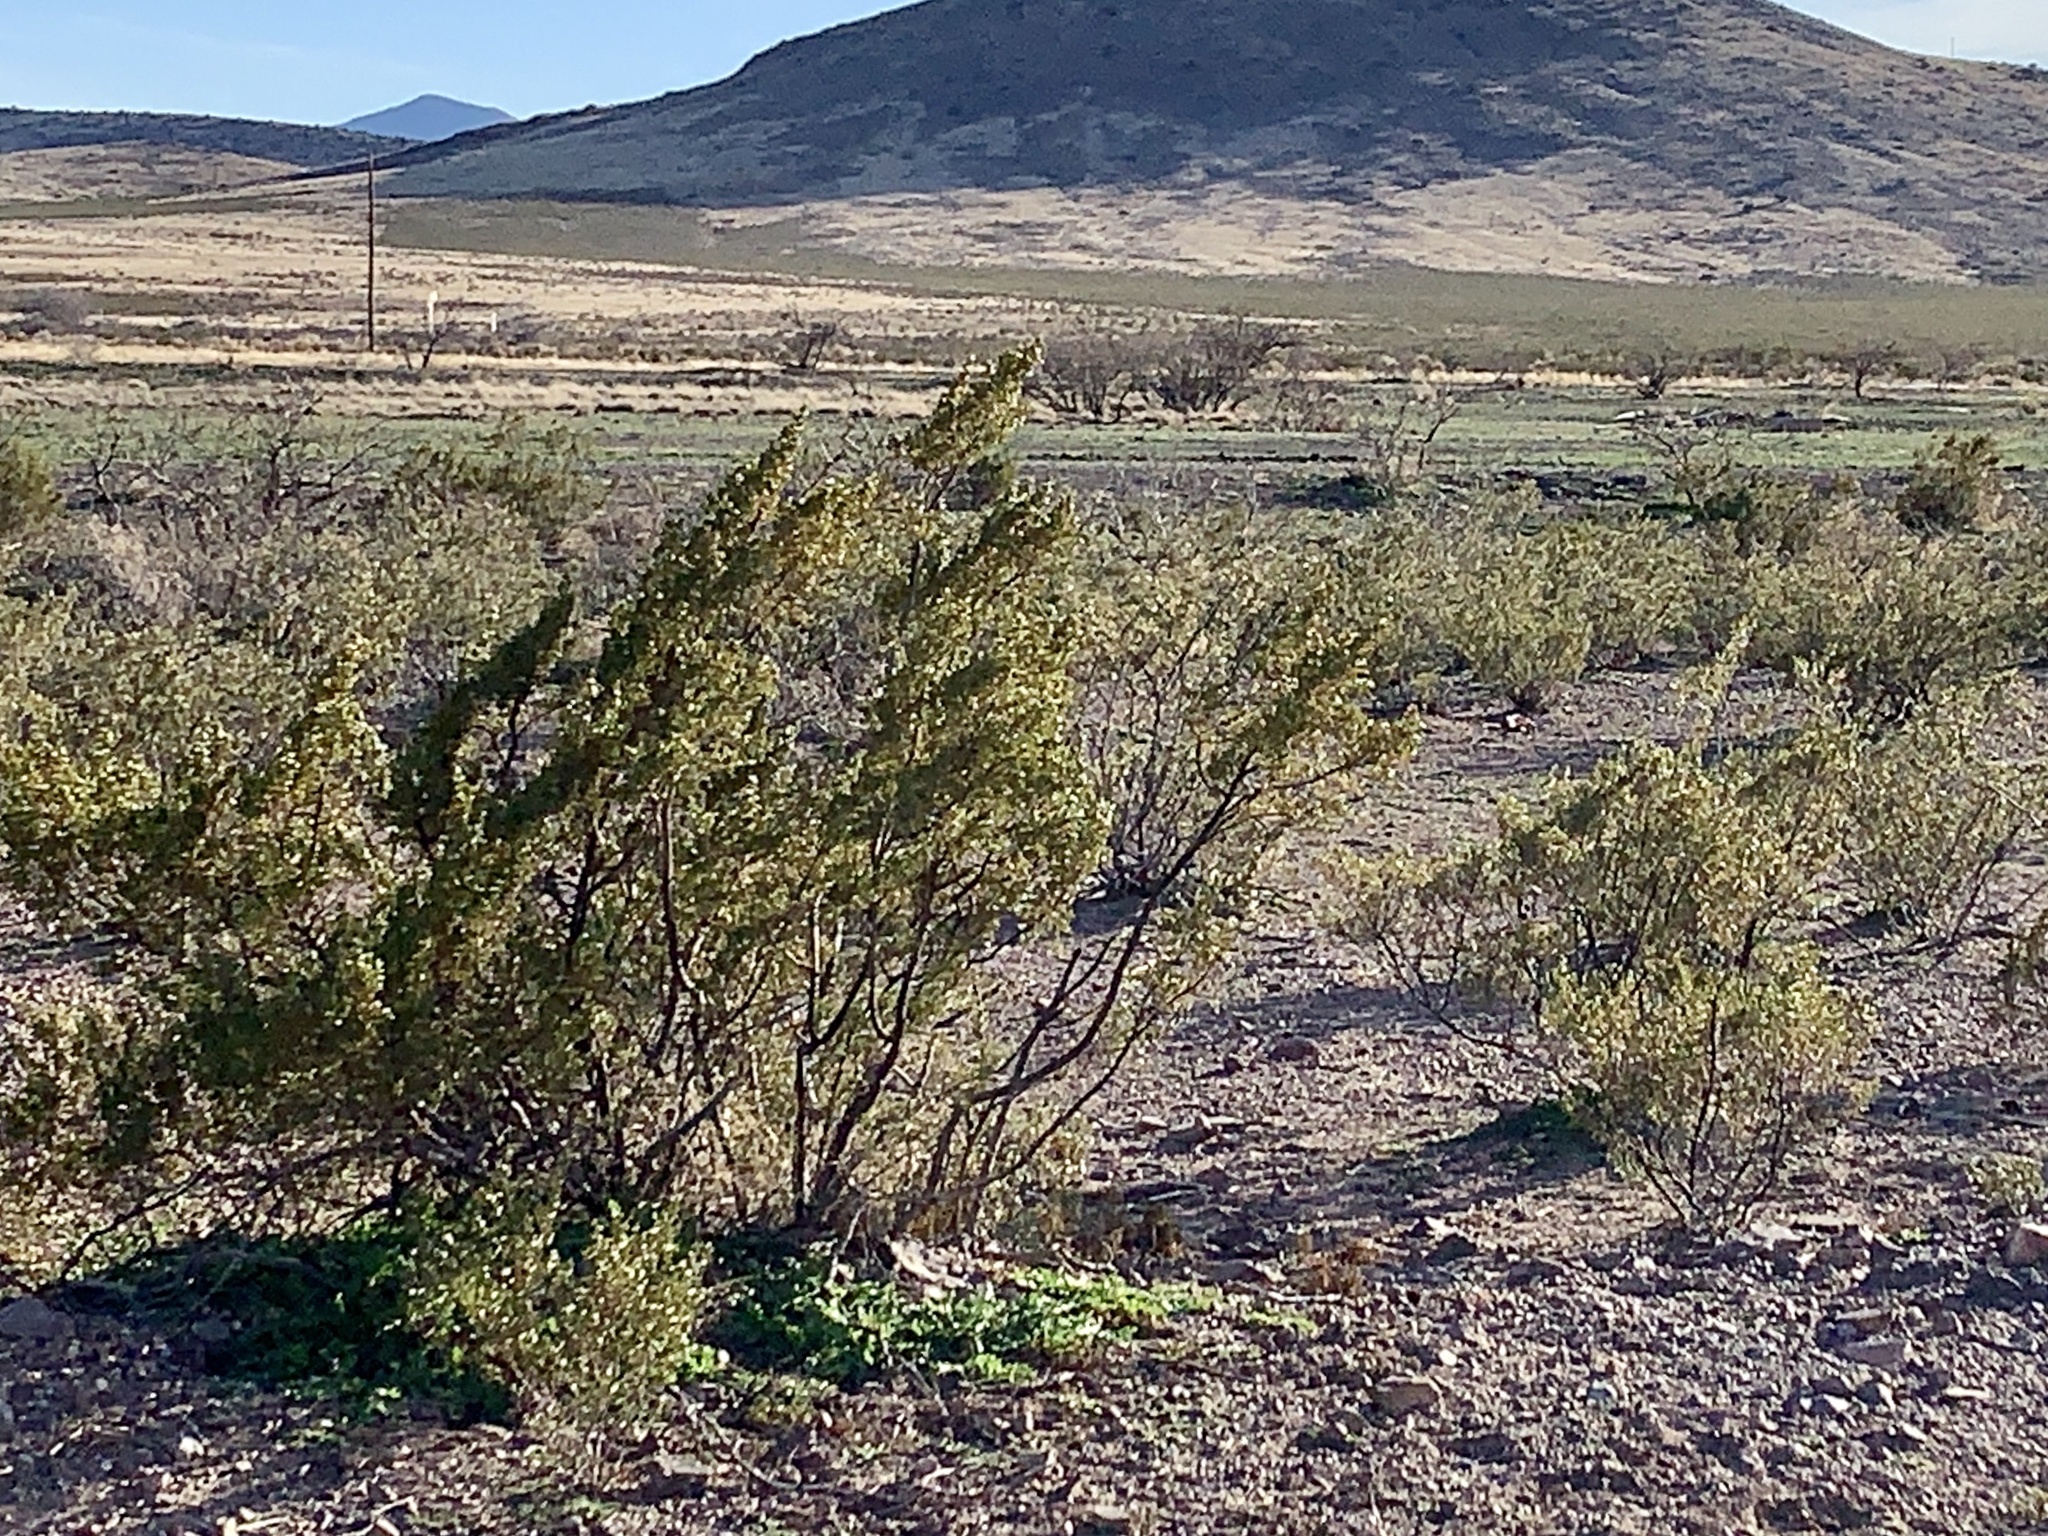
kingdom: Plantae
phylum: Tracheophyta
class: Magnoliopsida
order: Zygophyllales
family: Zygophyllaceae
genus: Larrea
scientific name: Larrea tridentata
